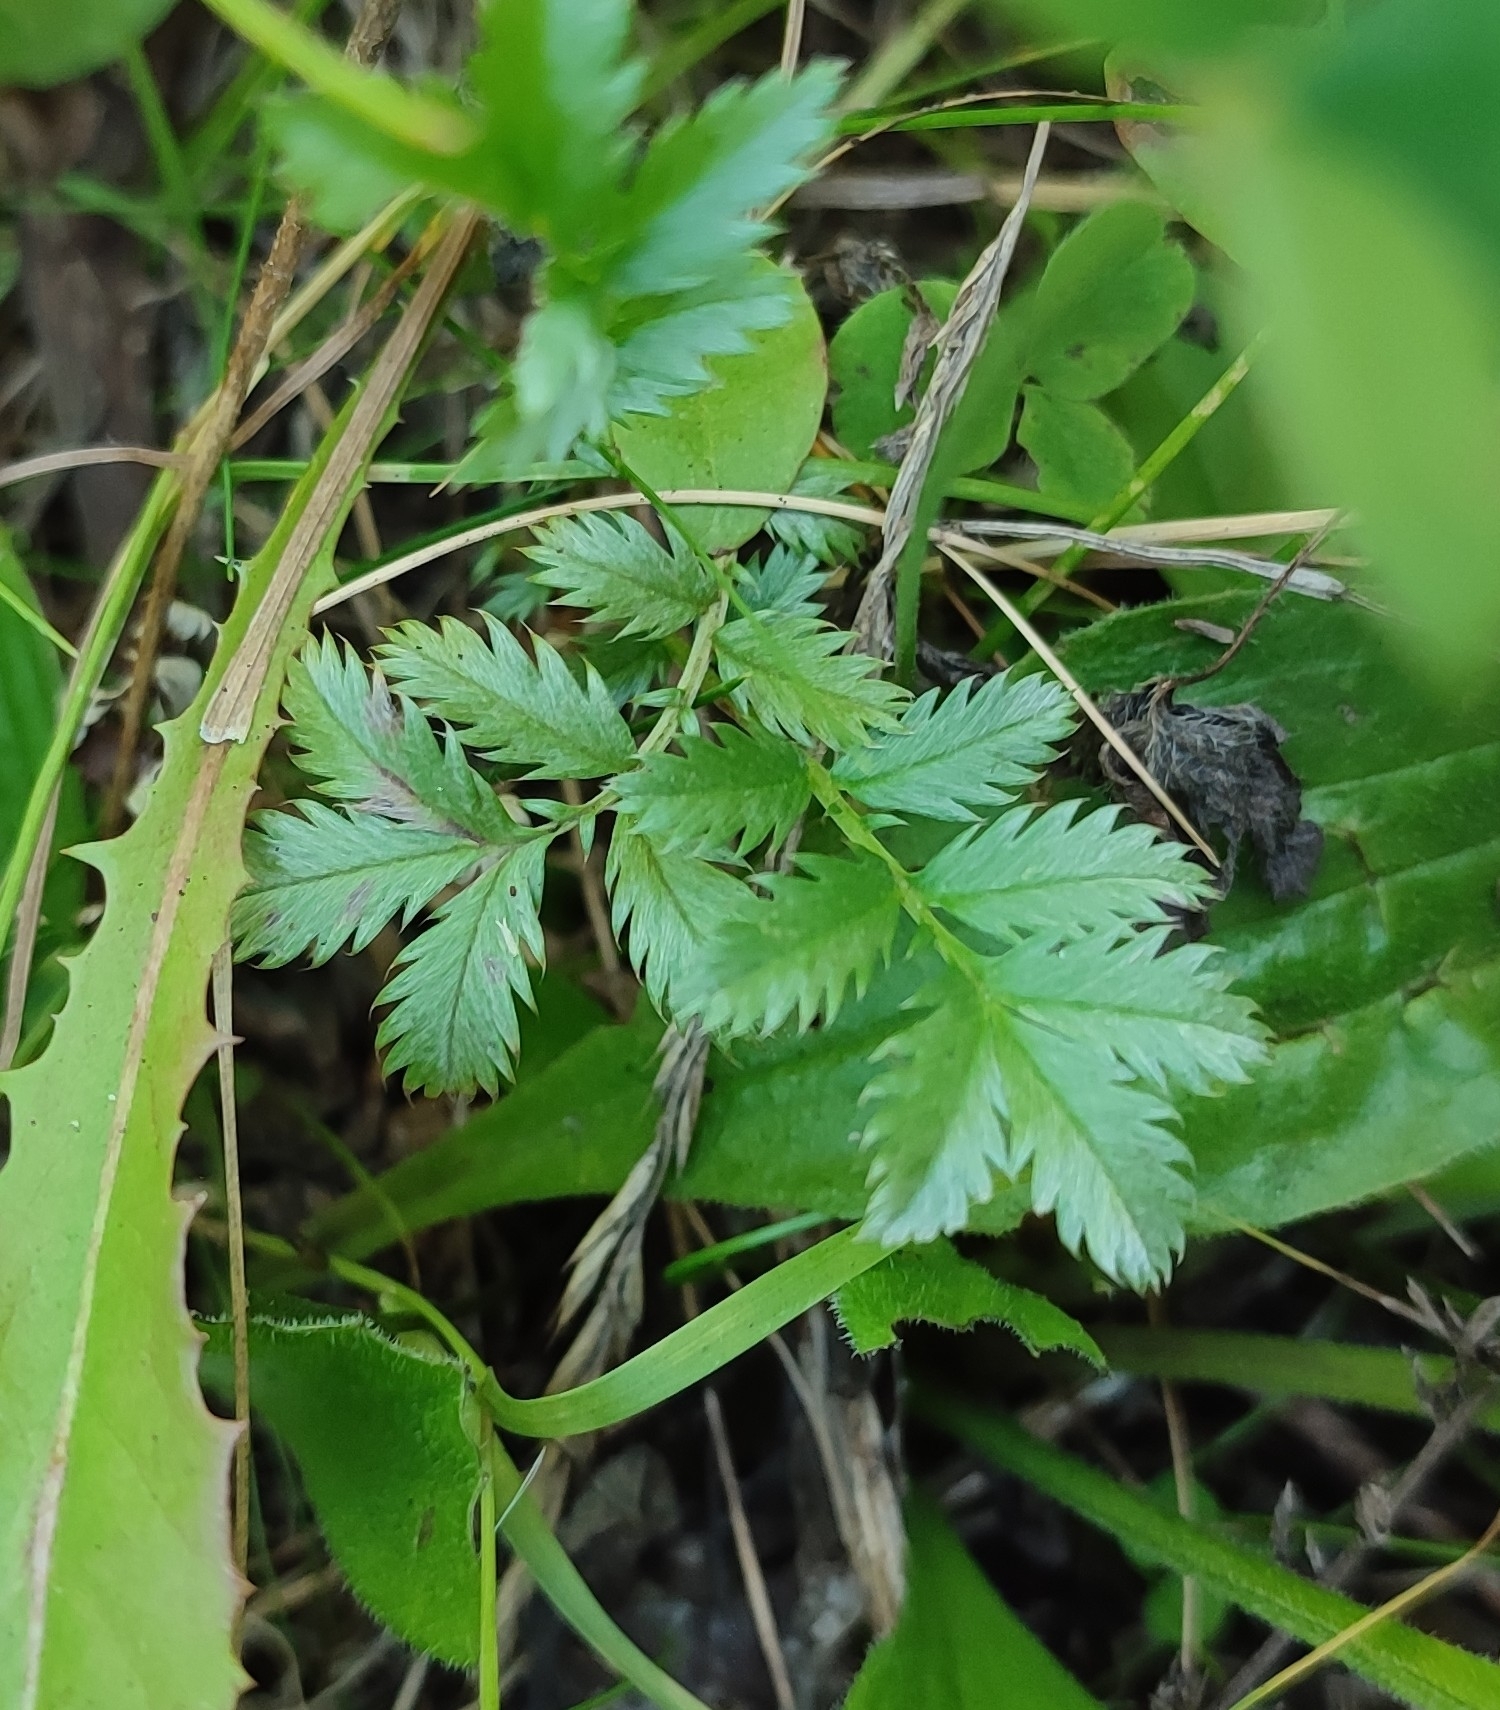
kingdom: Plantae
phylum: Tracheophyta
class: Magnoliopsida
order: Rosales
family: Rosaceae
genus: Argentina
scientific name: Argentina anserina
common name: Common silverweed
